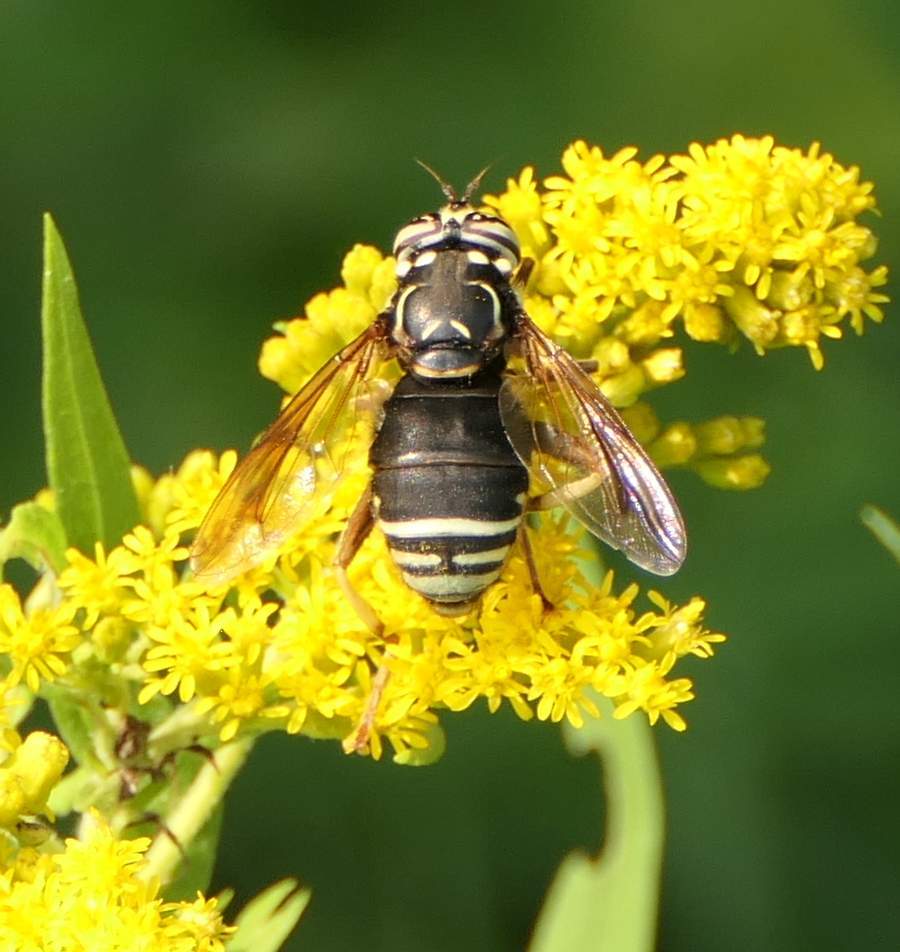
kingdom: Animalia
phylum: Arthropoda
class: Insecta
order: Diptera
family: Syrphidae
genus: Spilomyia
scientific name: Spilomyia fusca
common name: Bald-faced hornet fly
